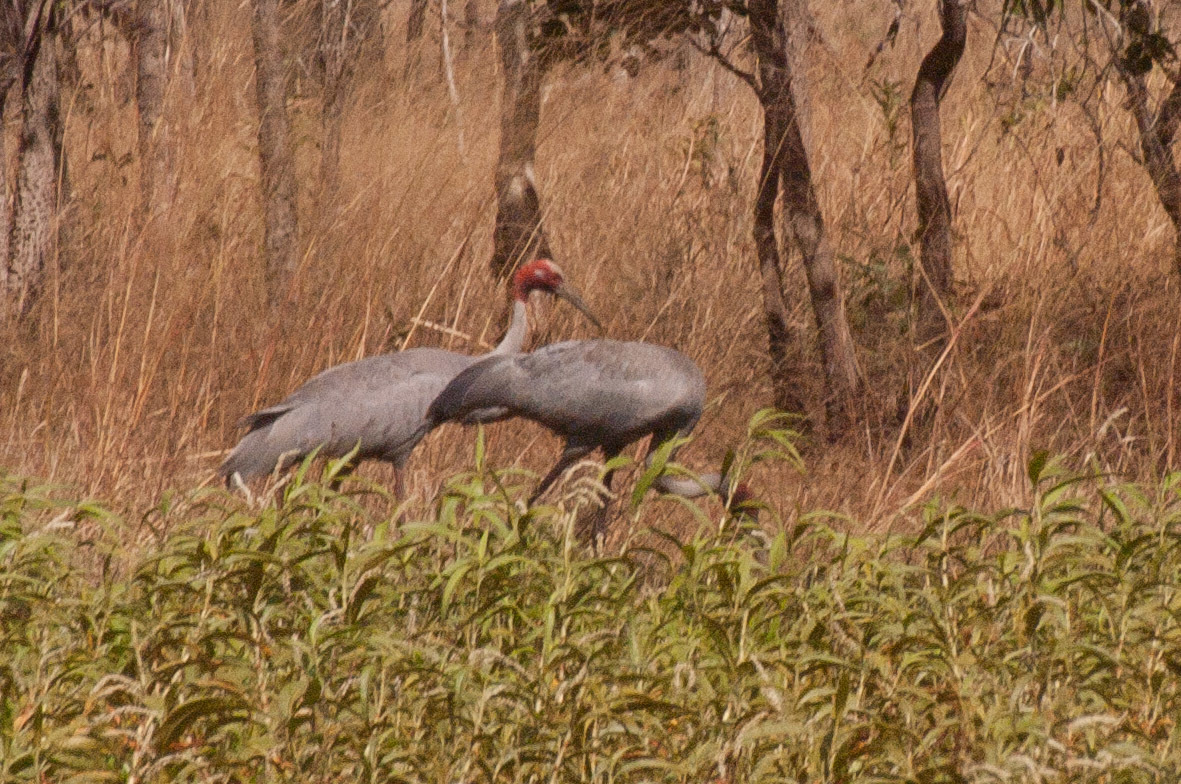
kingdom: Animalia
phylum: Chordata
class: Aves
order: Gruiformes
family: Gruidae
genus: Grus
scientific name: Grus antigone
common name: Sarus crane
